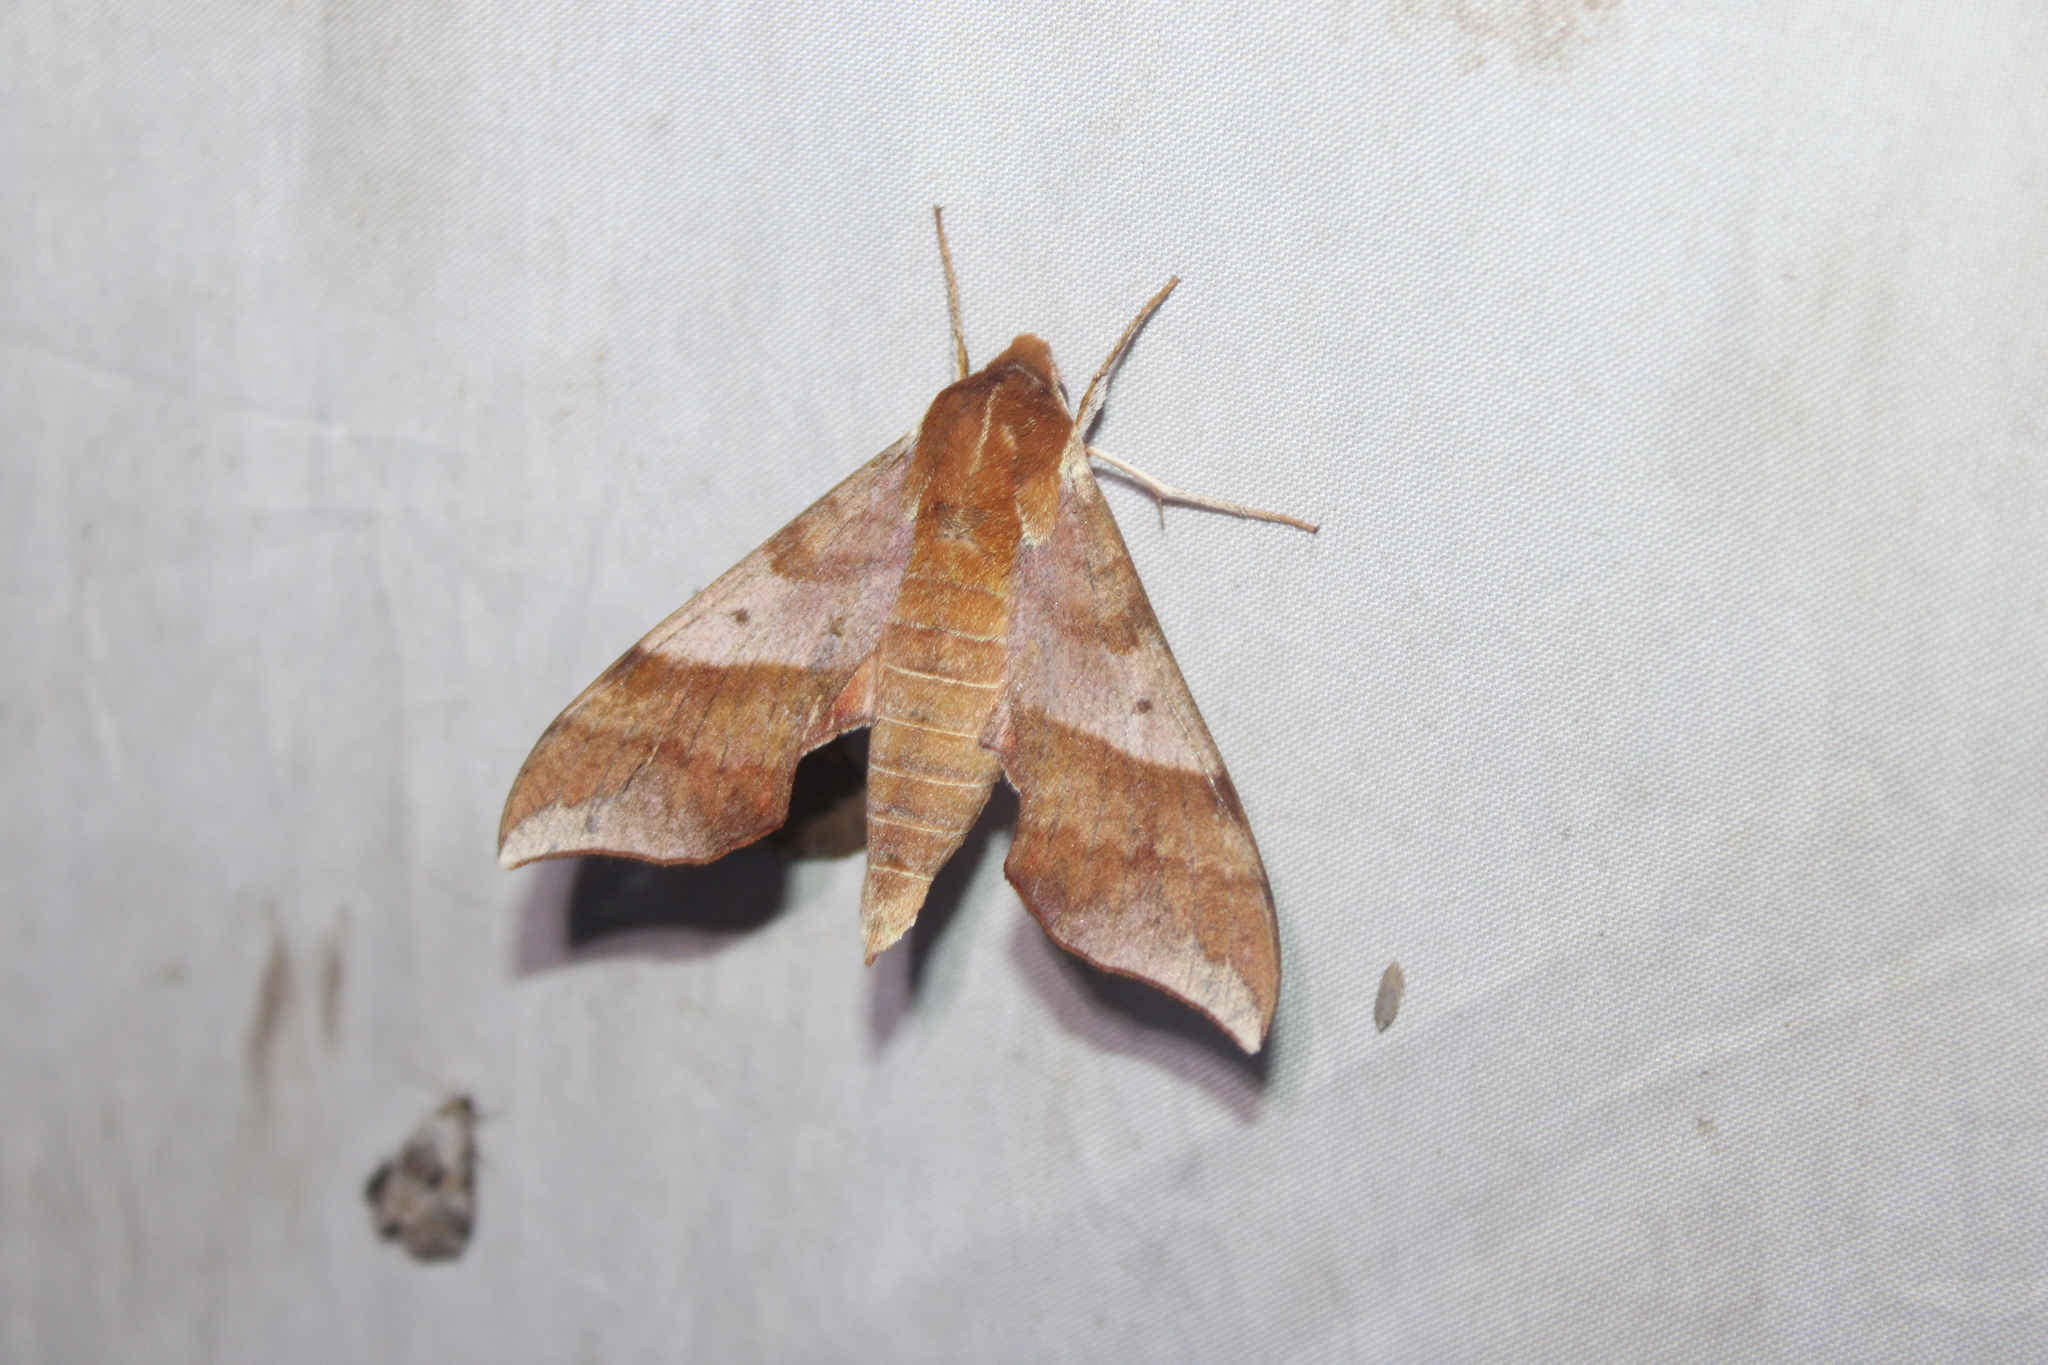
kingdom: Animalia
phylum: Arthropoda
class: Insecta
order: Lepidoptera
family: Sphingidae
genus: Darapsa
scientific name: Darapsa choerilus
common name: Azalea sphinx
